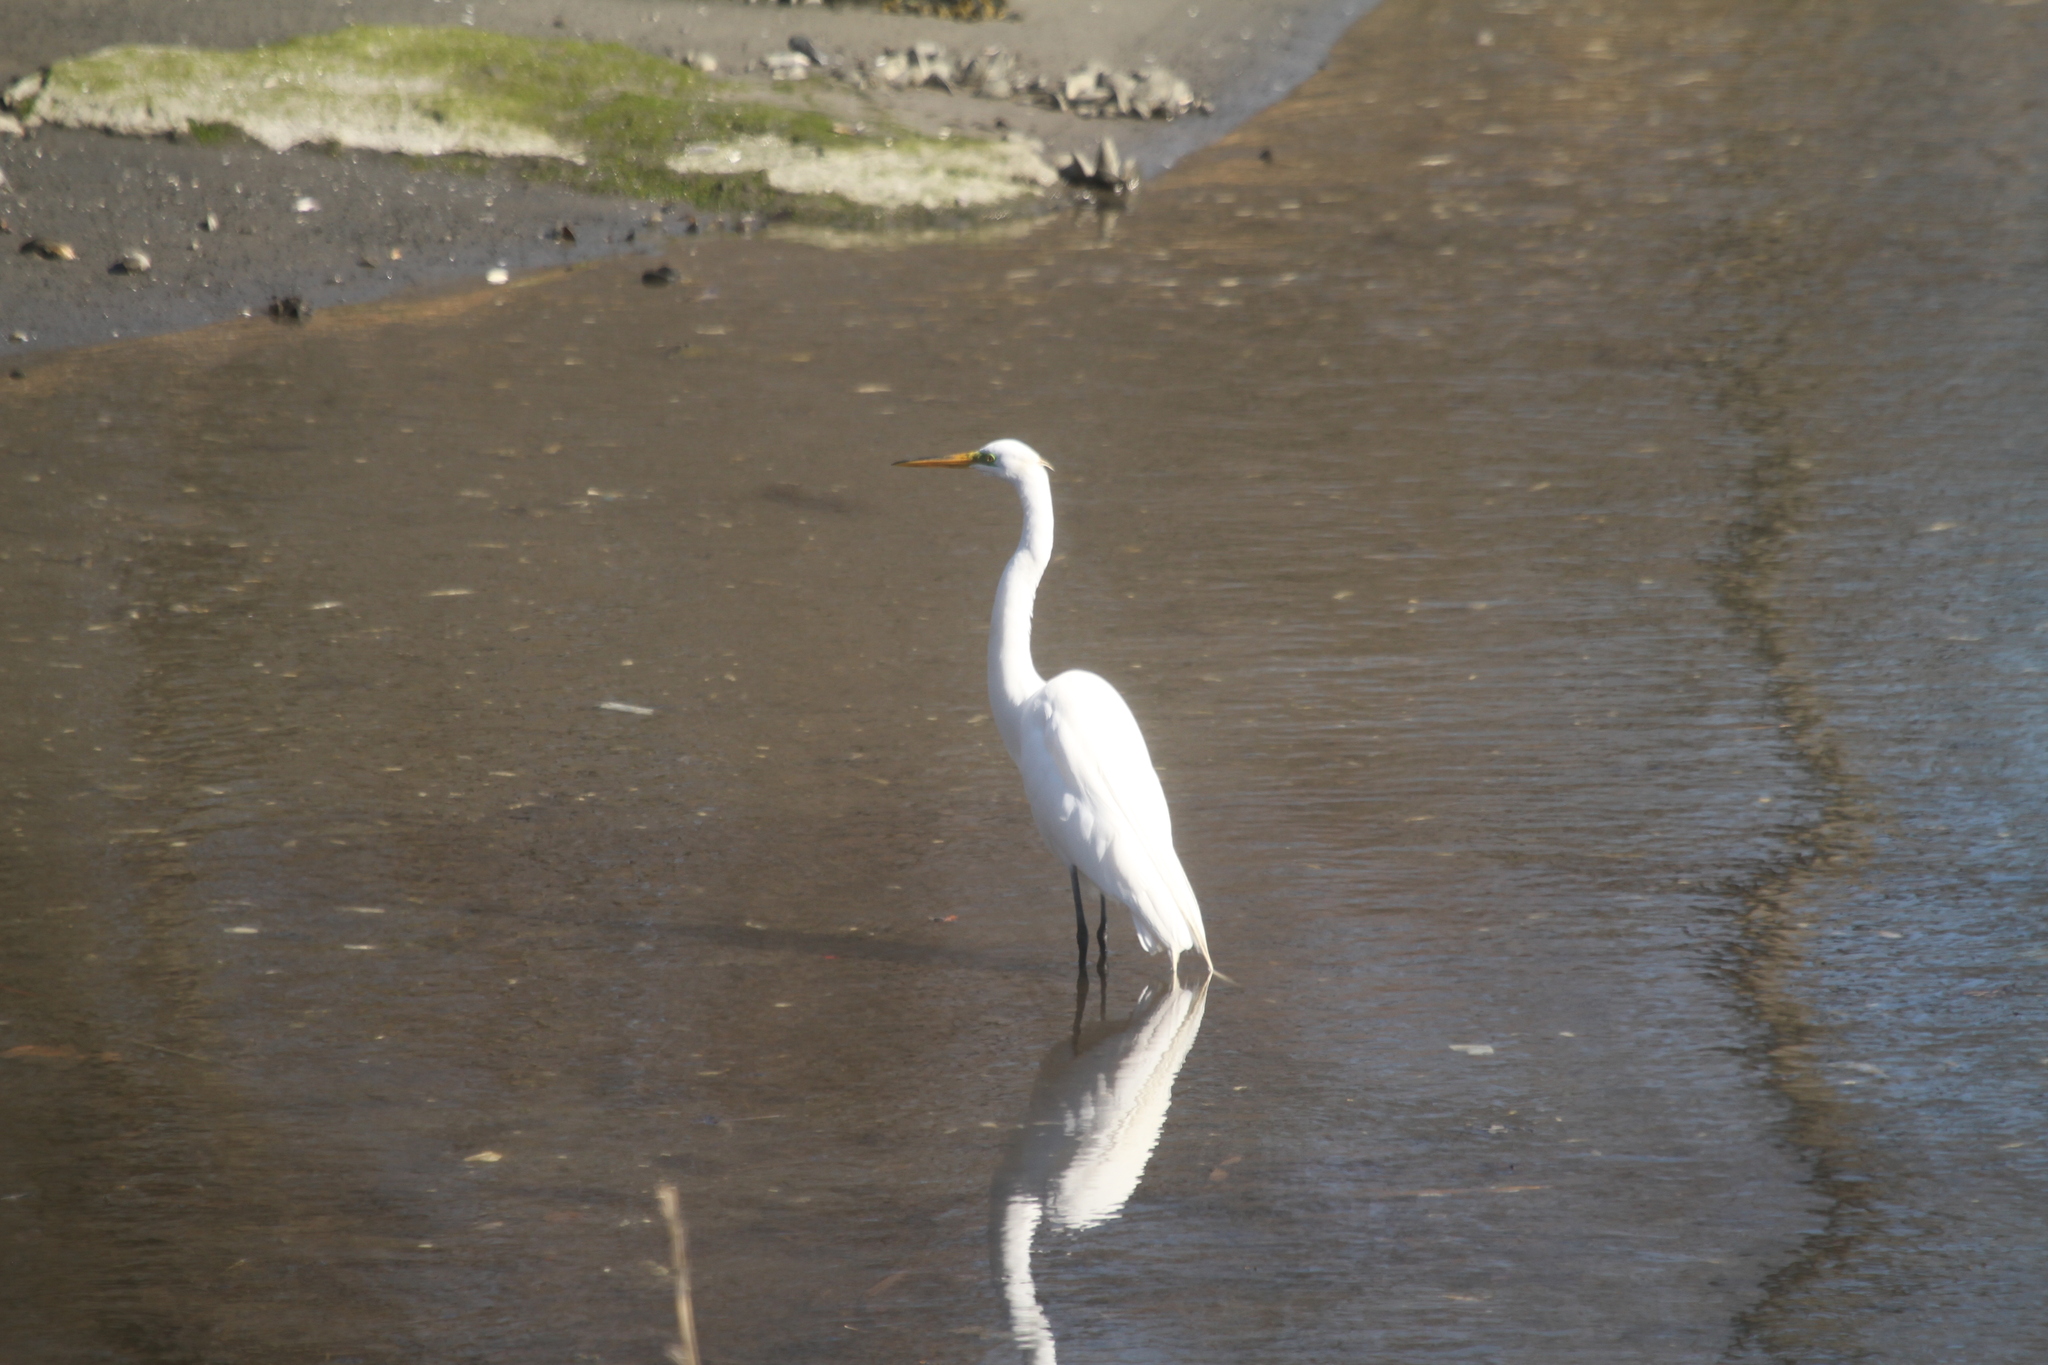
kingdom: Animalia
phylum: Chordata
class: Aves
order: Pelecaniformes
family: Ardeidae
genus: Ardea
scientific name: Ardea alba
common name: Great egret
